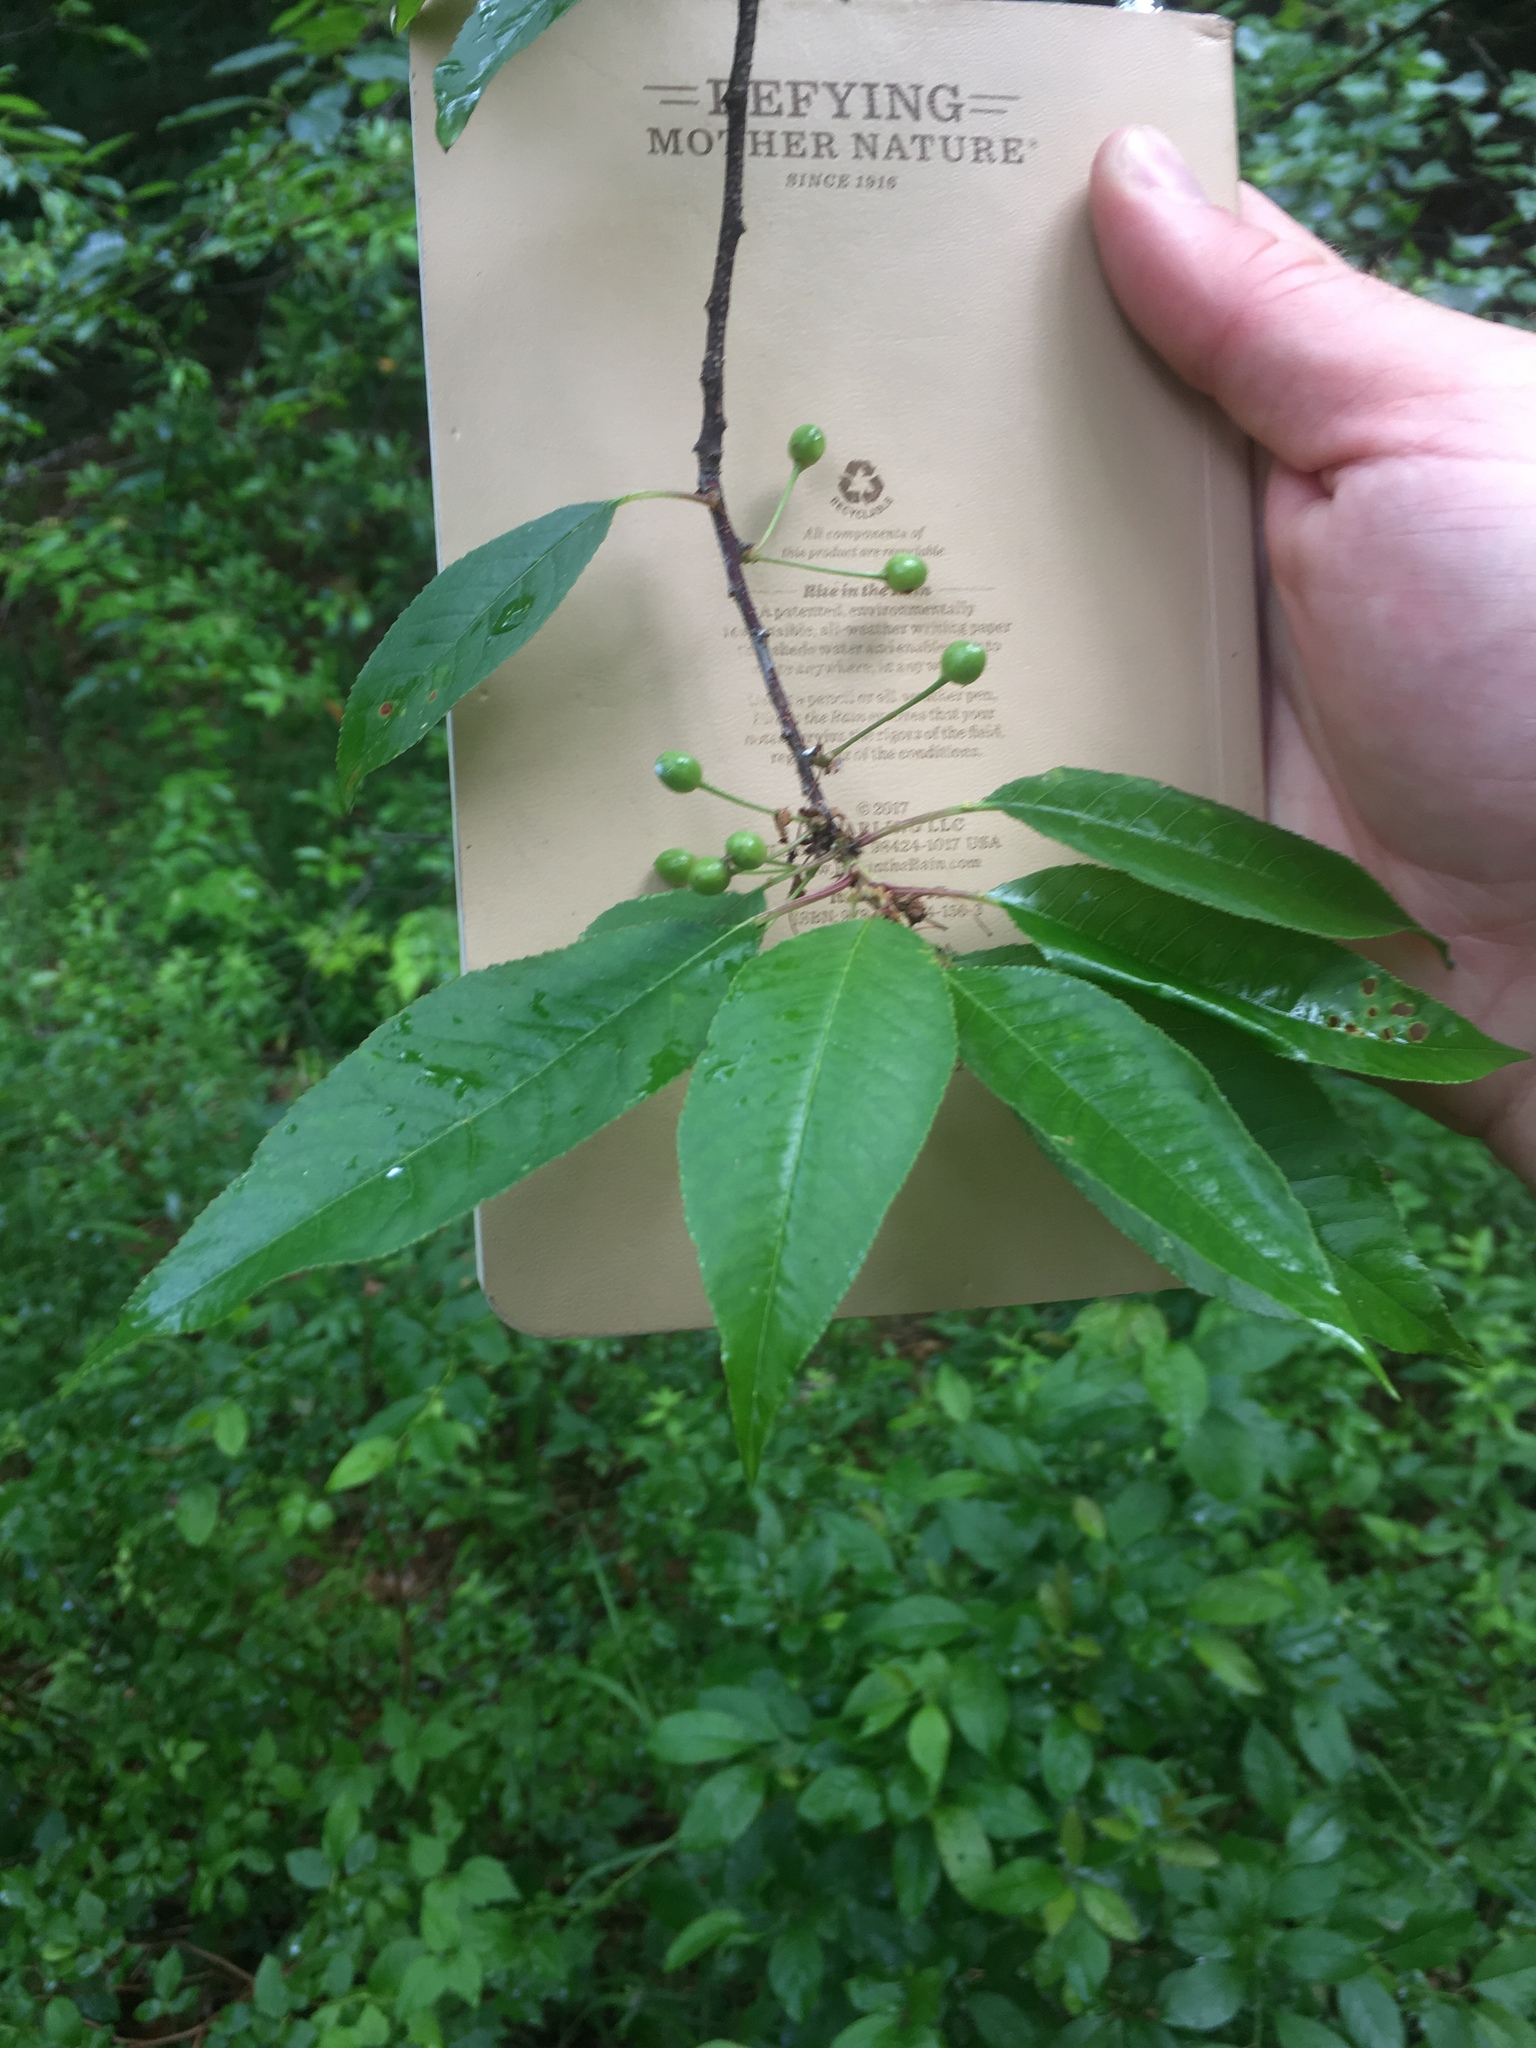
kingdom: Plantae
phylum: Tracheophyta
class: Magnoliopsida
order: Rosales
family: Rosaceae
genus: Prunus
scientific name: Prunus pensylvanica
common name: Pin cherry
